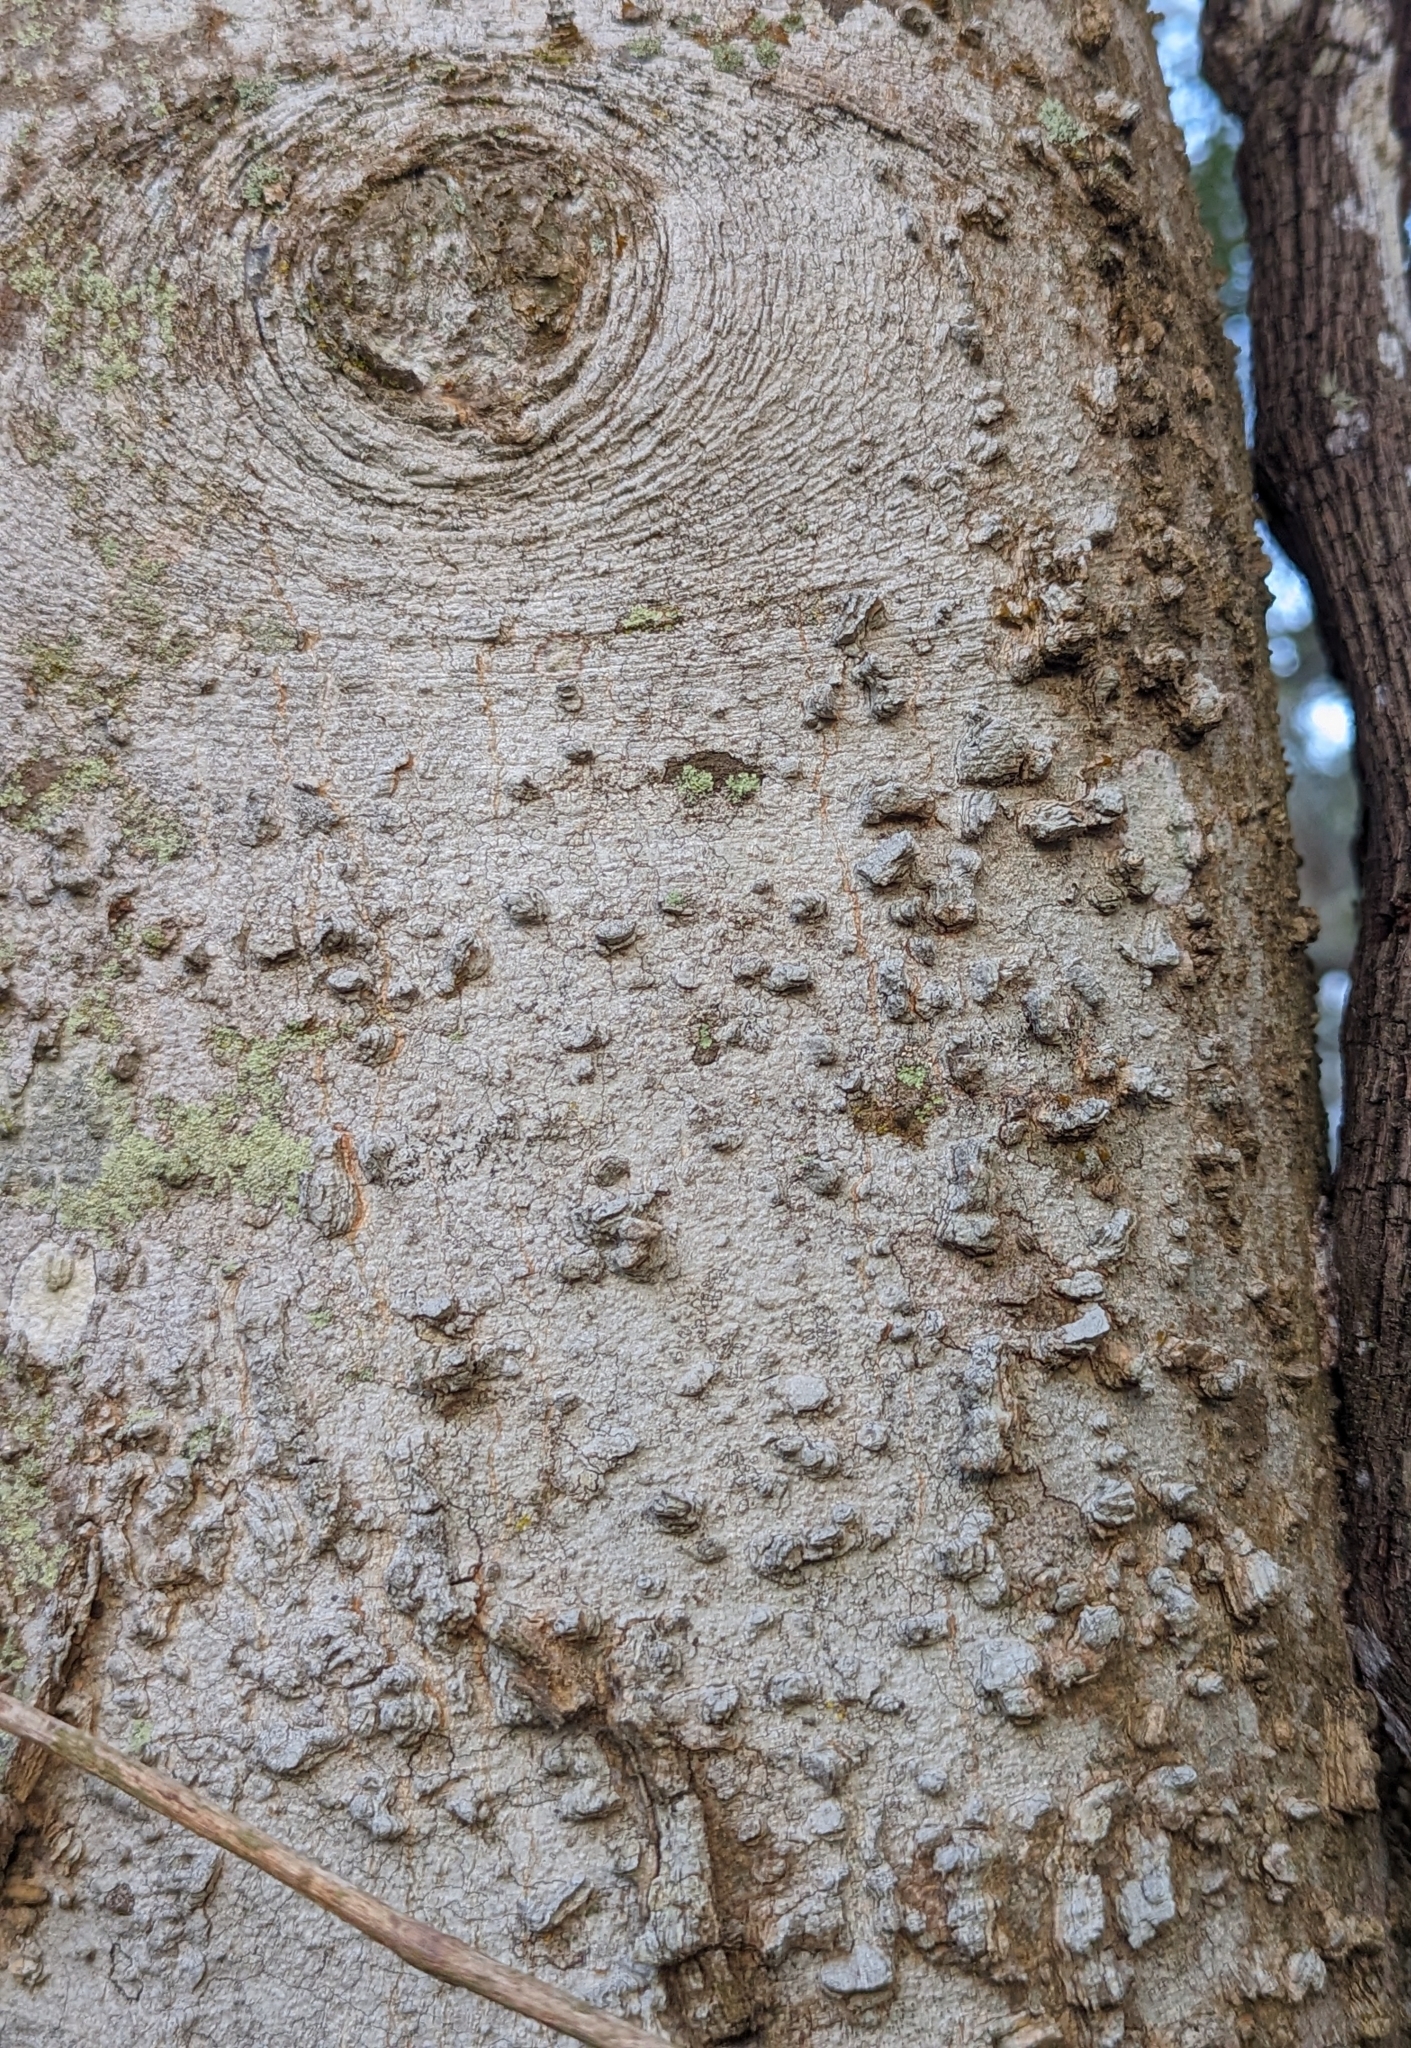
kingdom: Plantae
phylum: Tracheophyta
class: Magnoliopsida
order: Rosales
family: Cannabaceae
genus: Celtis
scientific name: Celtis laevigata
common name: Sugarberry
